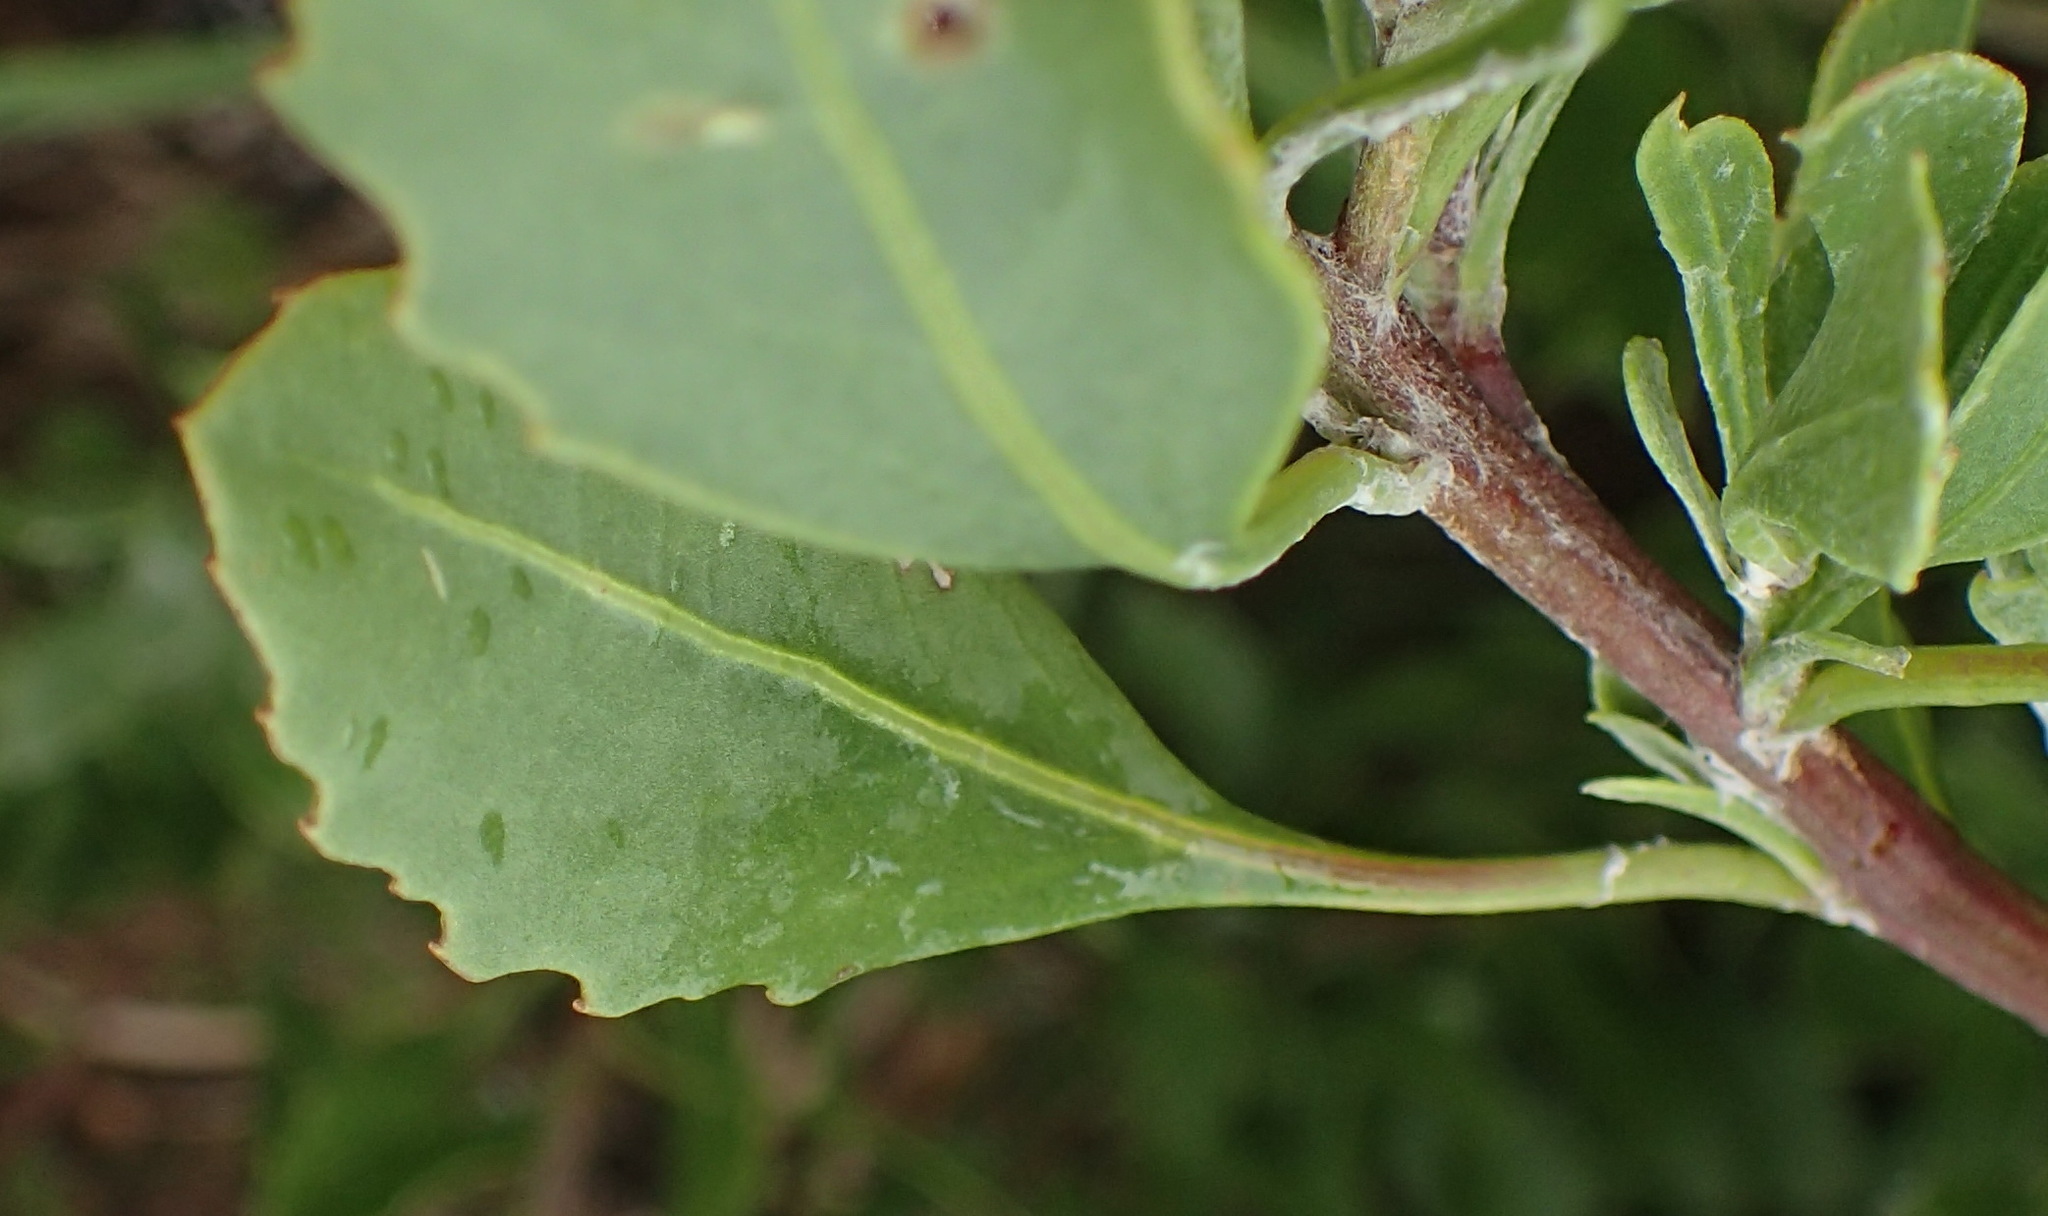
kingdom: Plantae
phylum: Tracheophyta
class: Magnoliopsida
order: Asterales
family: Asteraceae
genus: Osteospermum
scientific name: Osteospermum moniliferum
